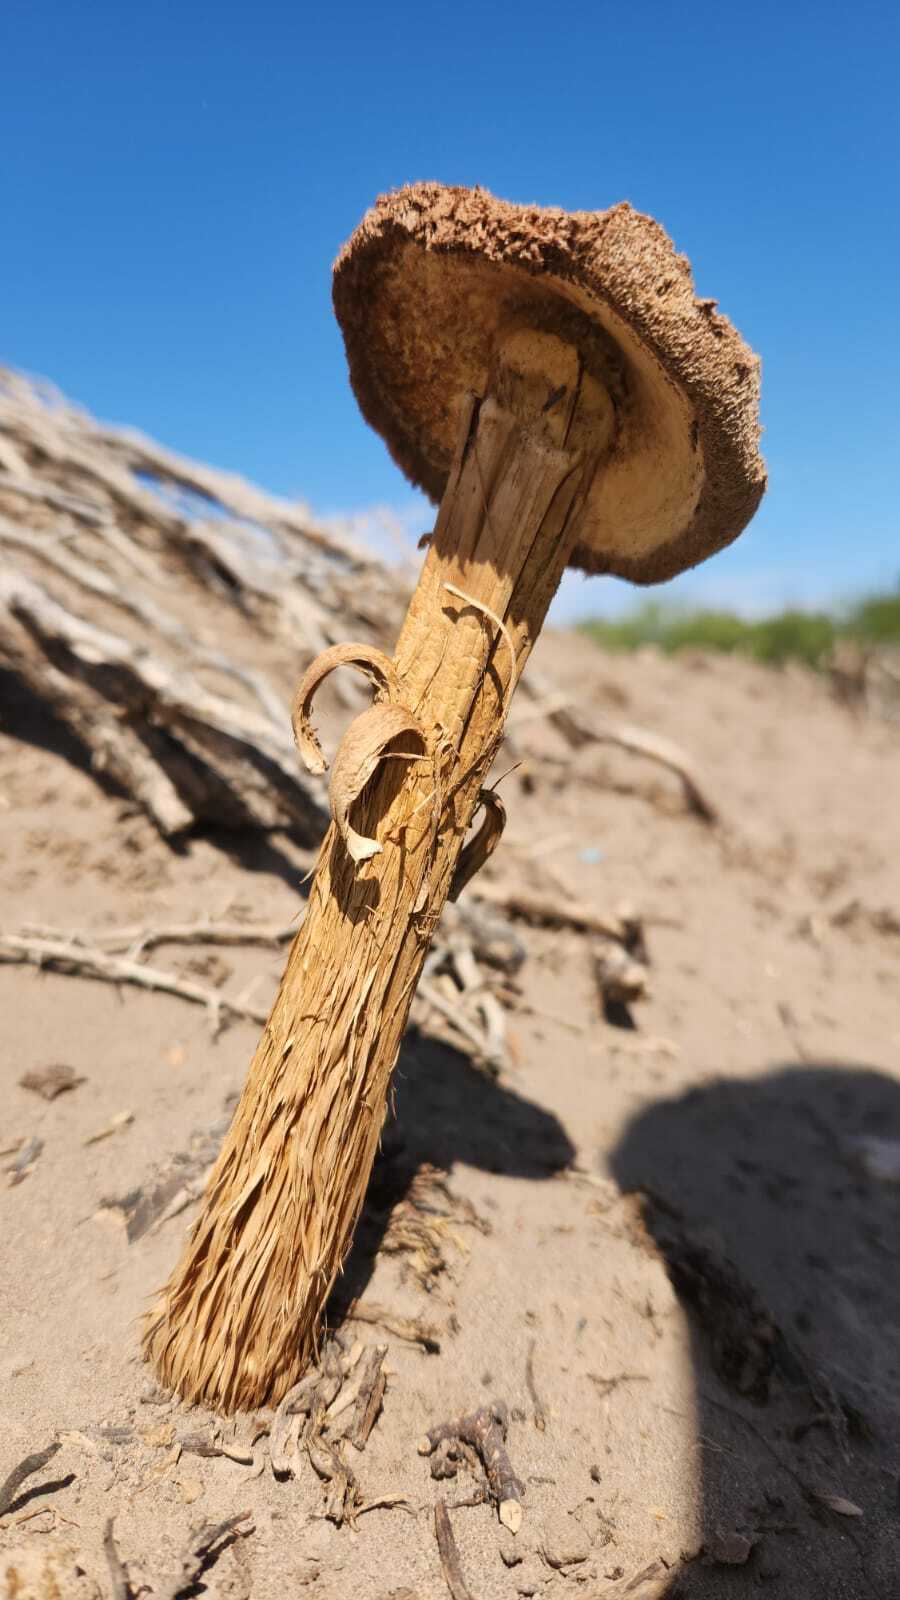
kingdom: Fungi
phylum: Basidiomycota
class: Agaricomycetes
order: Agaricales
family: Agaricaceae
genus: Battarrea
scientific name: Battarrea phalloides
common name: Sandy stiltball
